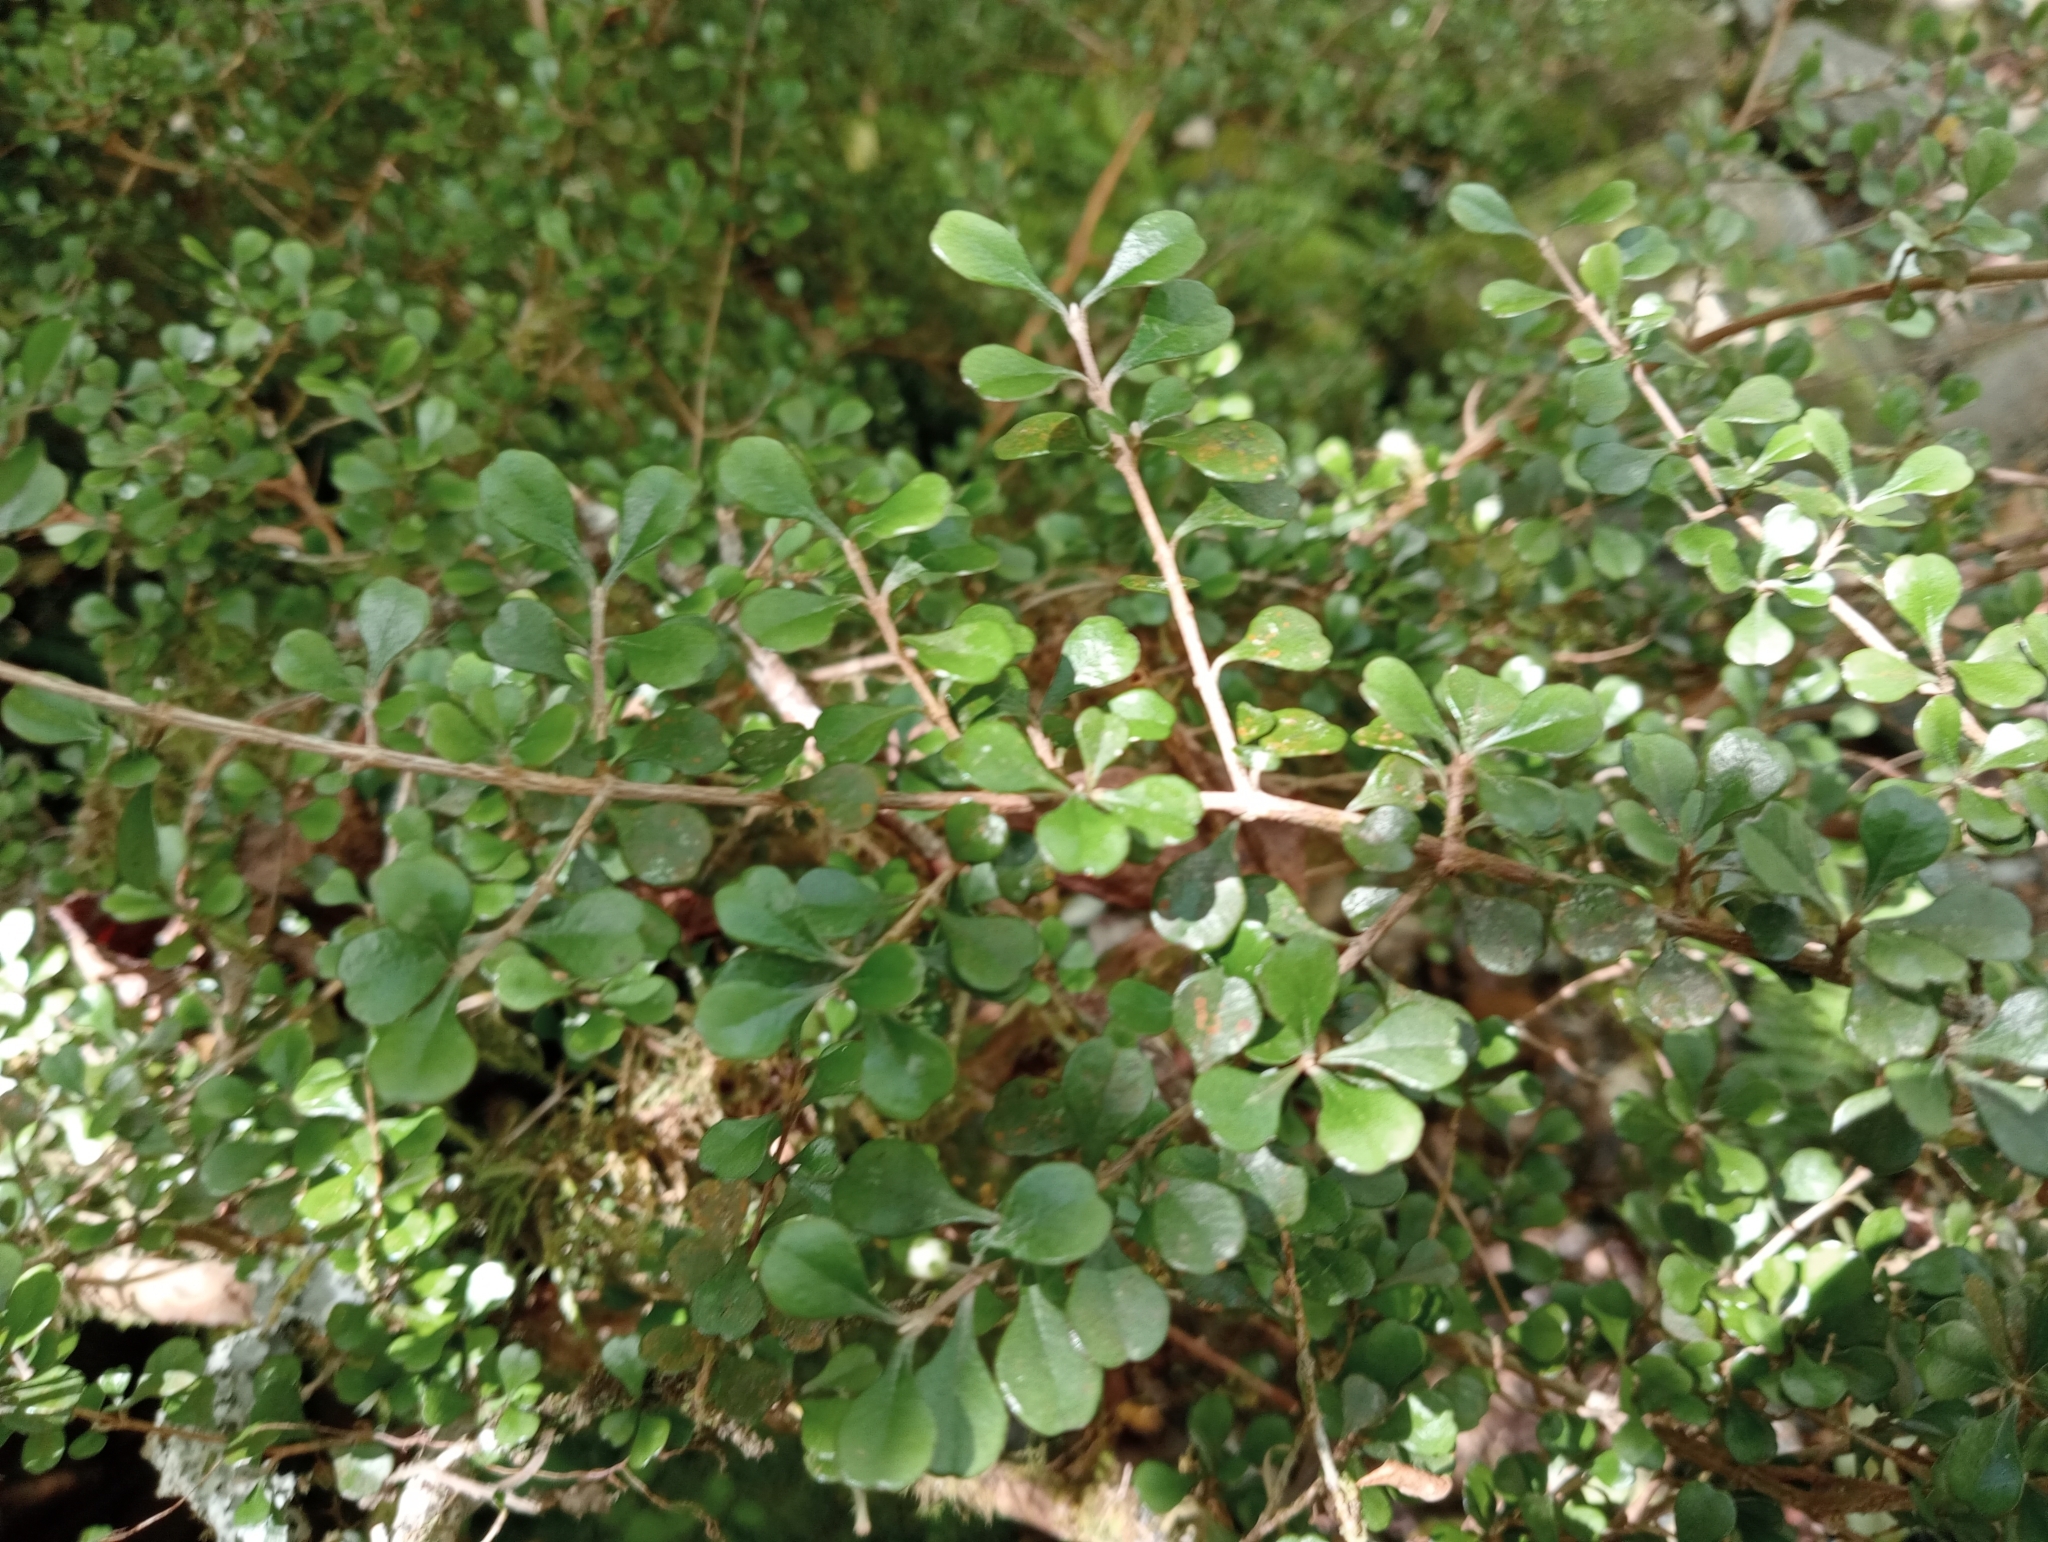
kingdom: Plantae
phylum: Tracheophyta
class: Magnoliopsida
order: Myrtales
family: Myrtaceae
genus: Lophomyrtus
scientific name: Lophomyrtus obcordata
